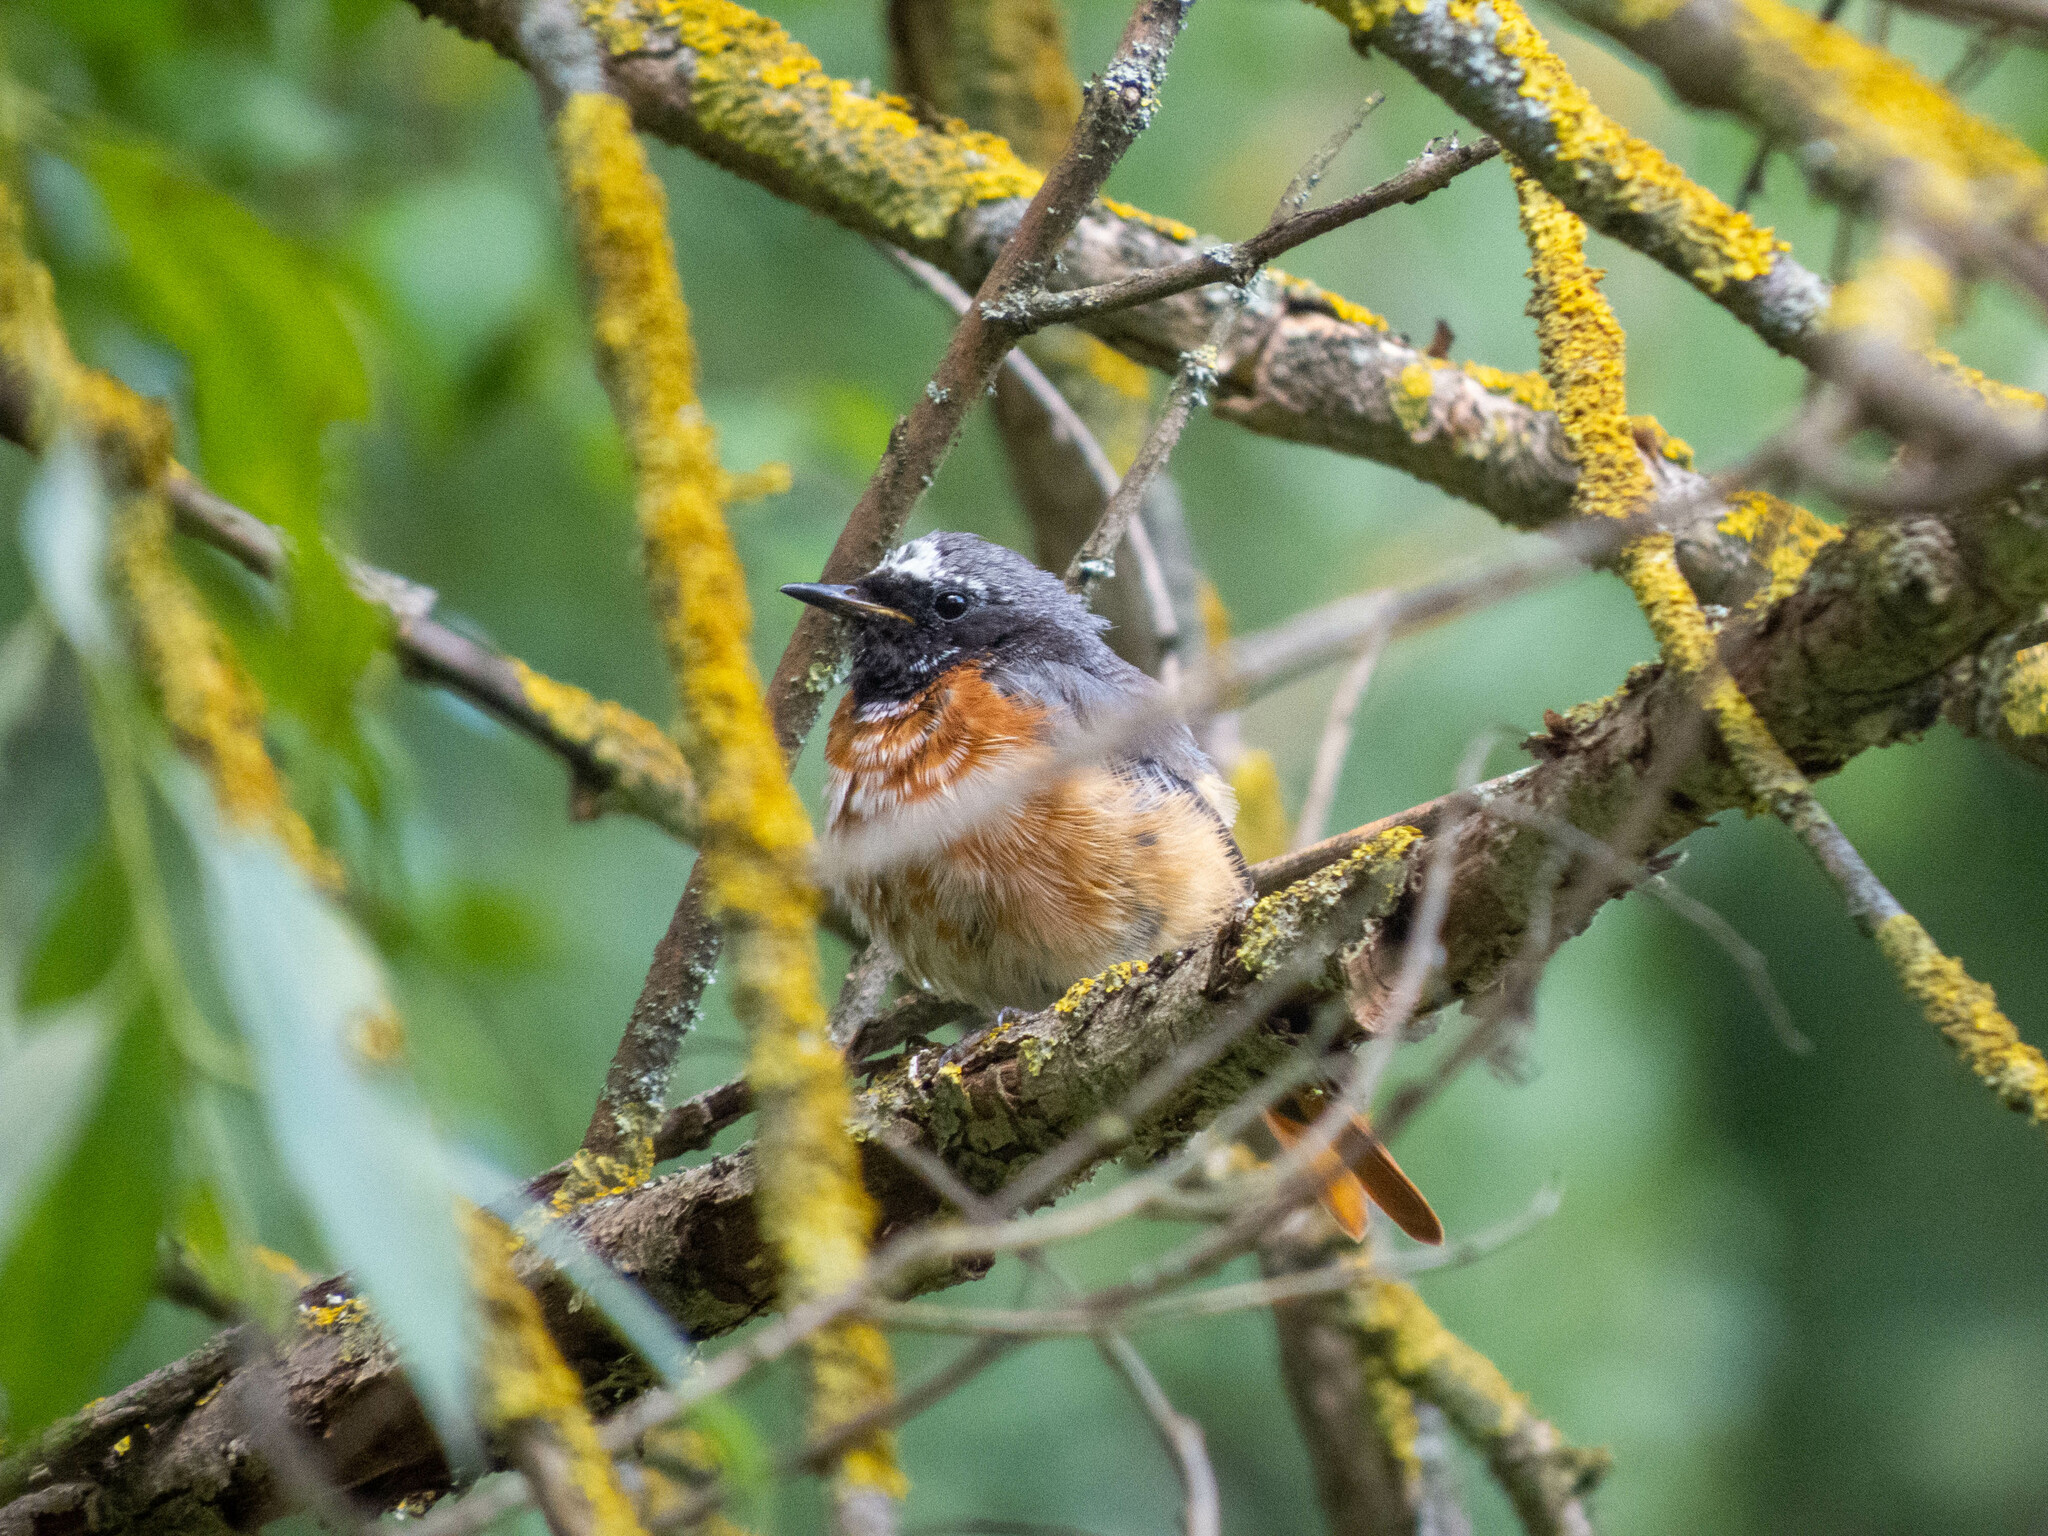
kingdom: Animalia
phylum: Chordata
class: Aves
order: Passeriformes
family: Muscicapidae
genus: Phoenicurus
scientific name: Phoenicurus phoenicurus
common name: Common redstart
